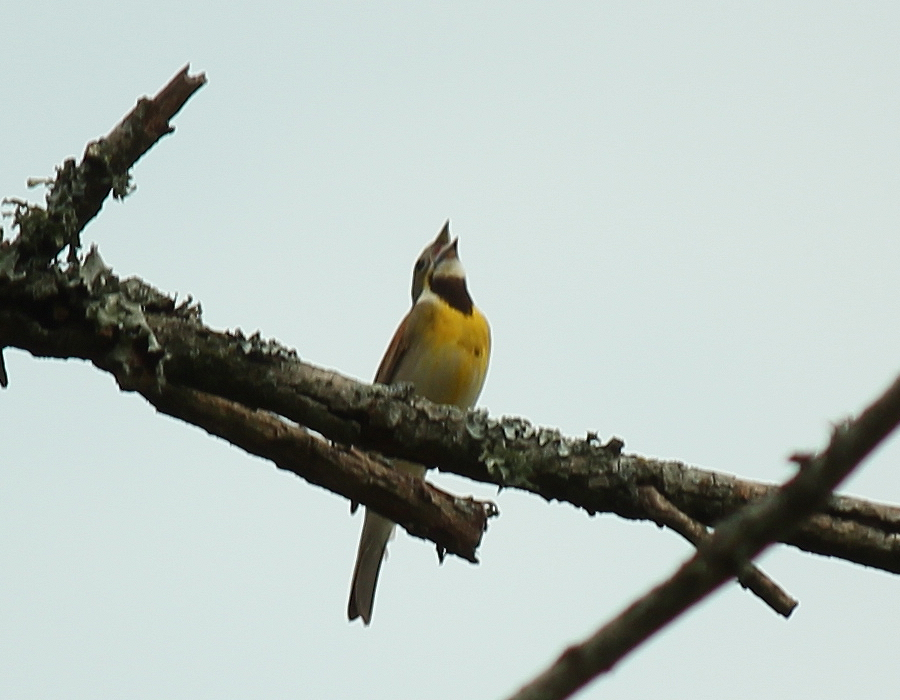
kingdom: Animalia
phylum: Chordata
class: Aves
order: Passeriformes
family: Cardinalidae
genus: Spiza
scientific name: Spiza americana
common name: Dickcissel
